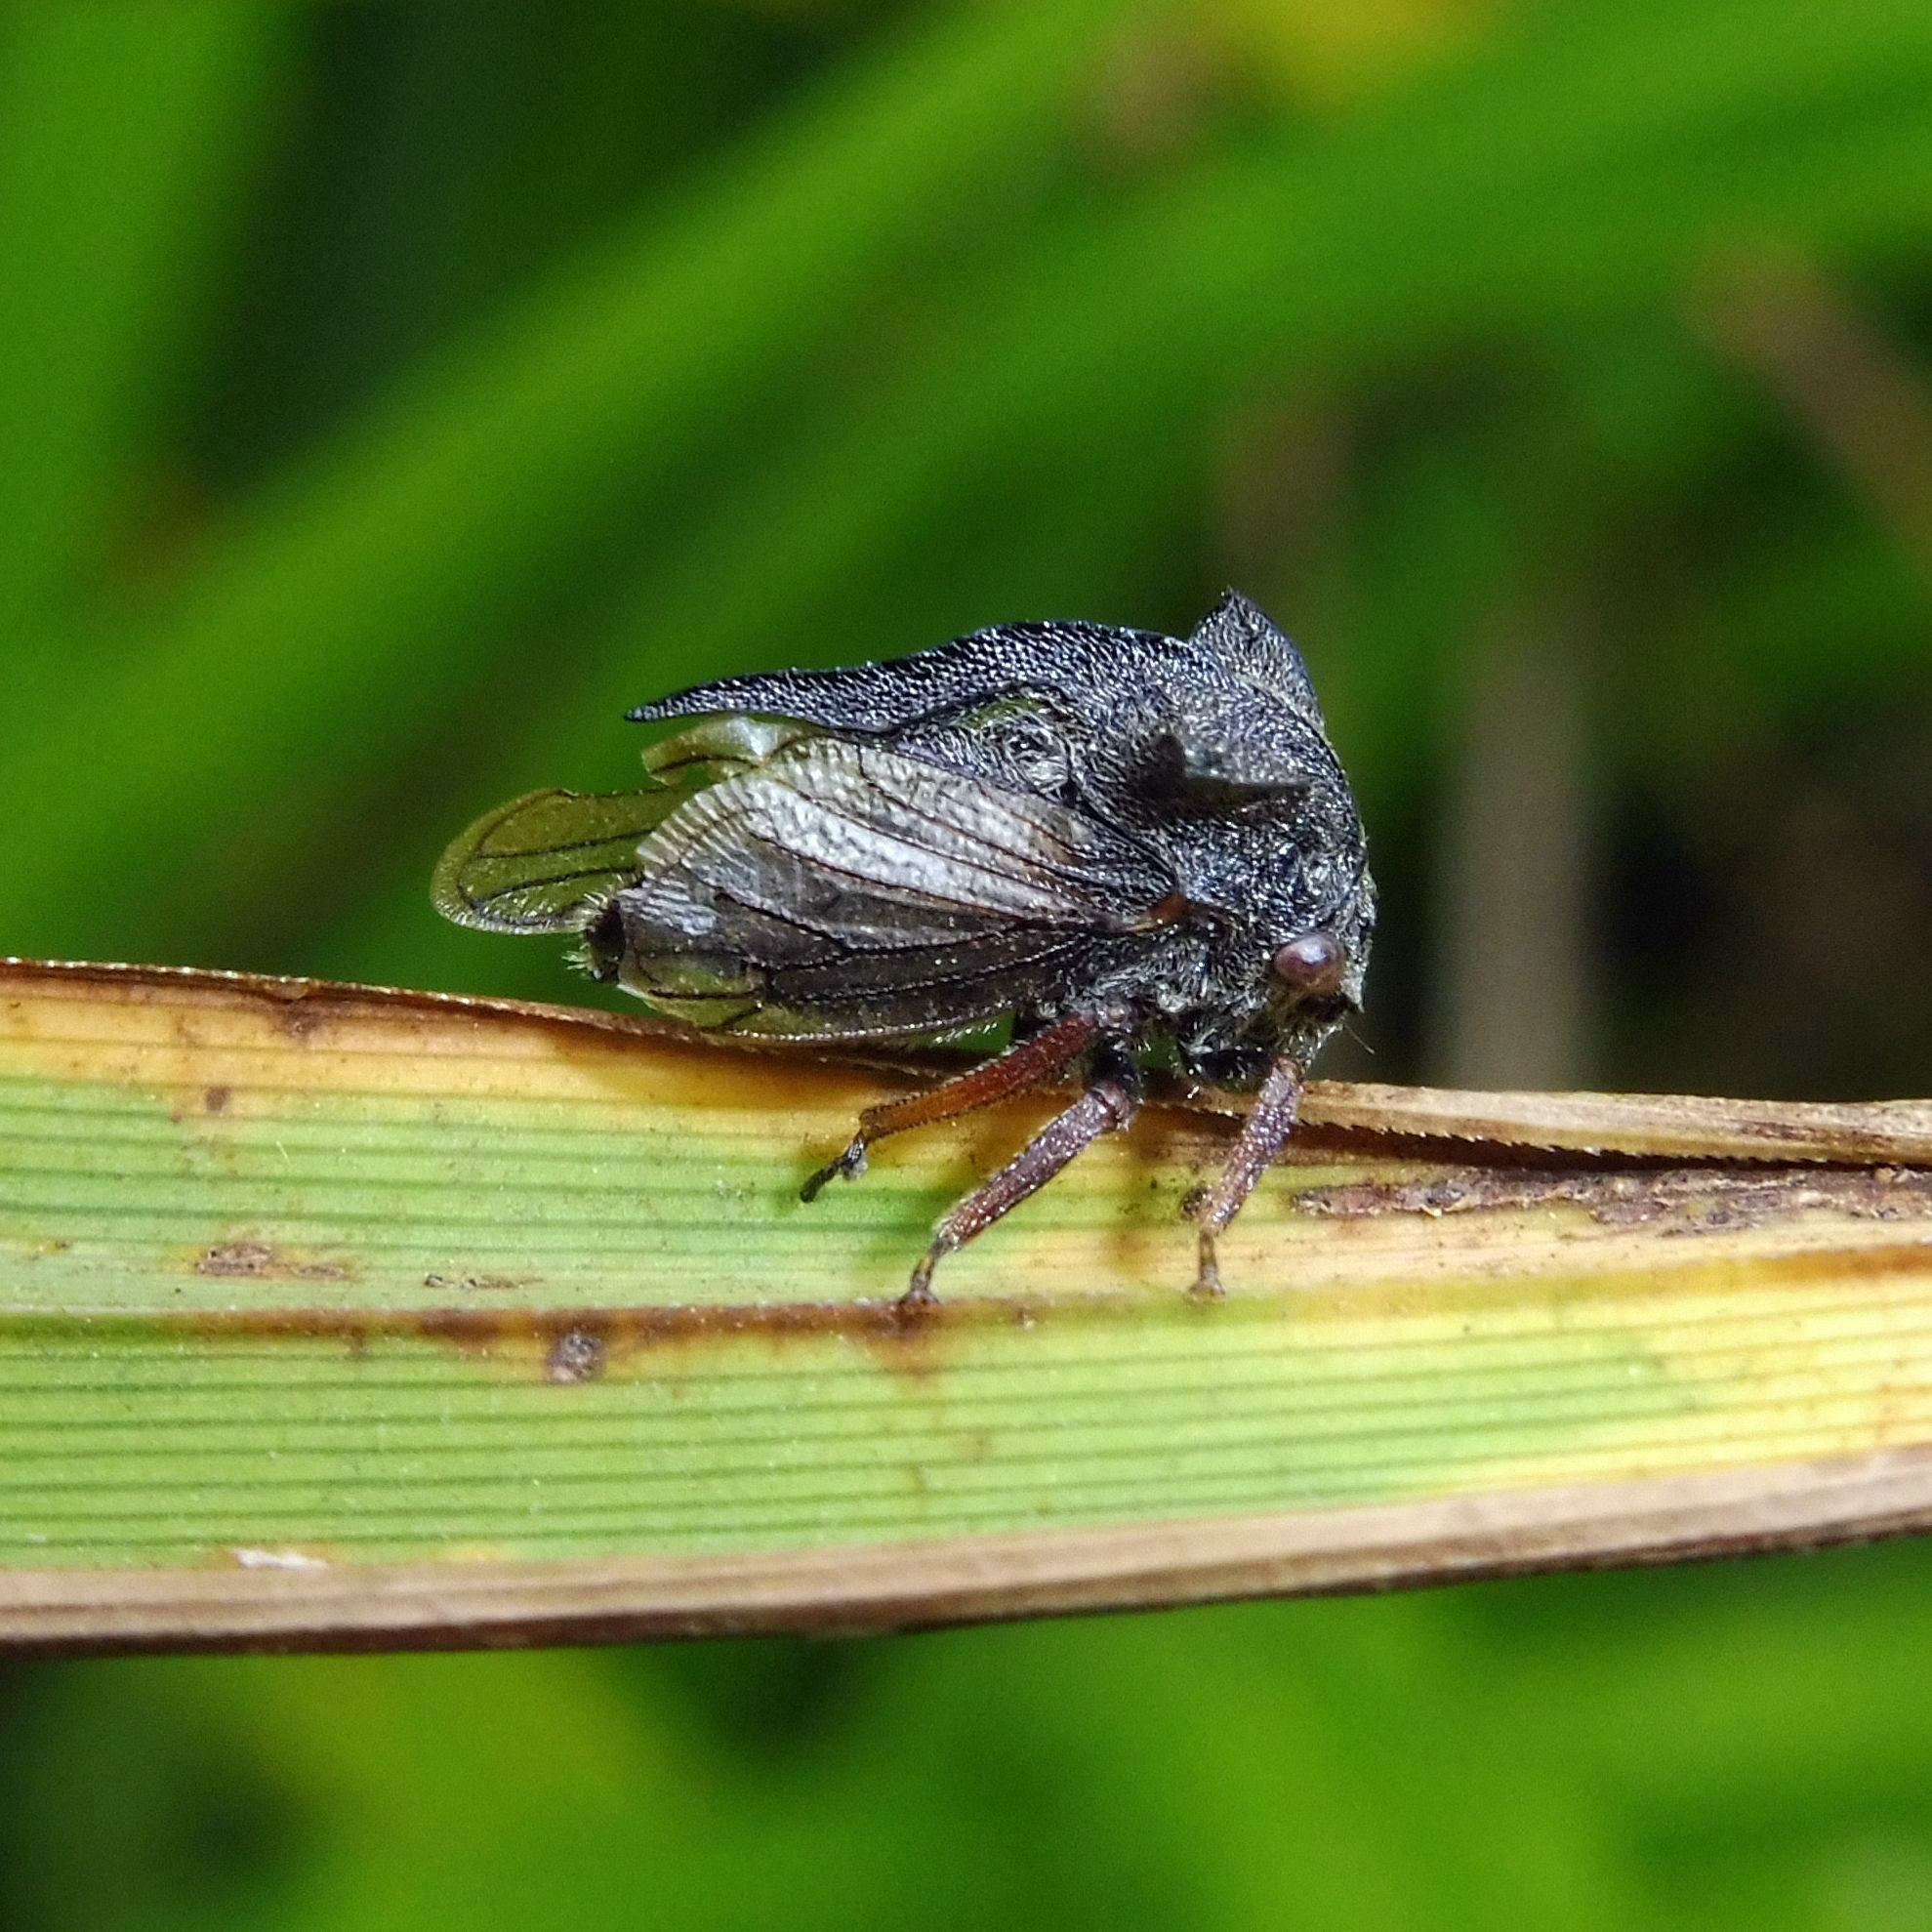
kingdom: Animalia
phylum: Arthropoda
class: Insecta
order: Hemiptera
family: Membracidae
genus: Centrotus
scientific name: Centrotus cornuta
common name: Treehopper
